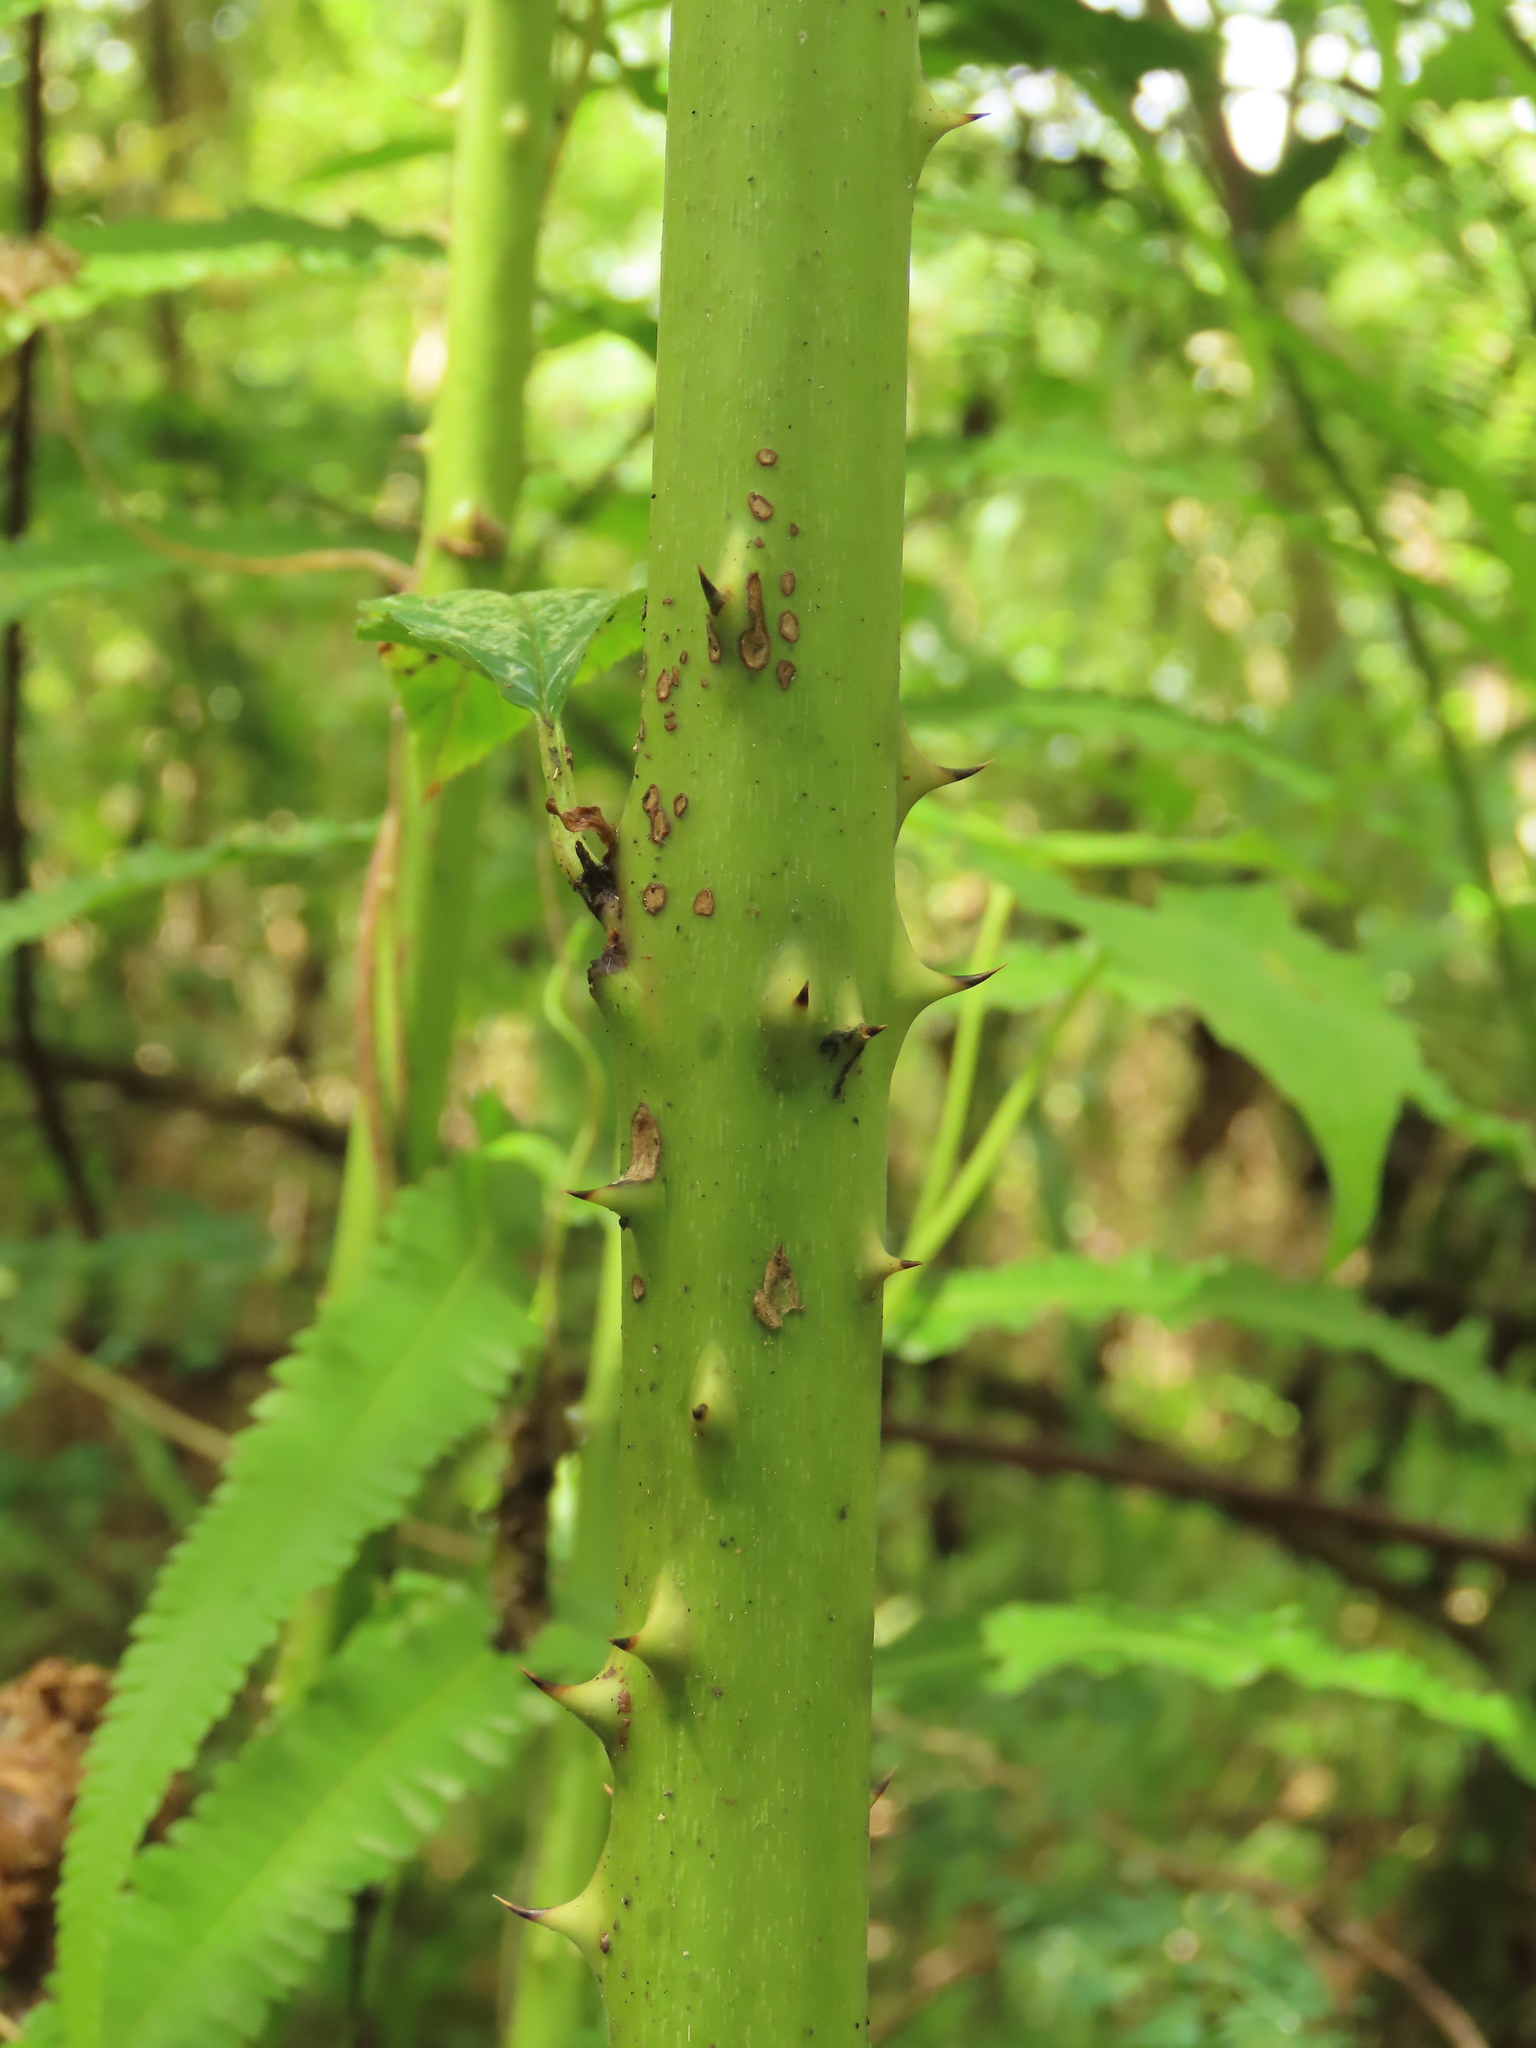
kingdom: Plantae
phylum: Tracheophyta
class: Magnoliopsida
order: Rosales
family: Rosaceae
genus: Rubus
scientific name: Rubus fraxinifolius
